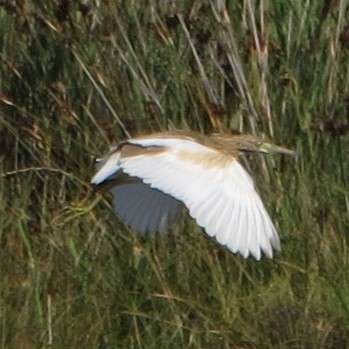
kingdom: Animalia
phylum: Chordata
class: Aves
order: Pelecaniformes
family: Ardeidae
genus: Ardeola
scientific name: Ardeola ralloides
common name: Squacco heron
